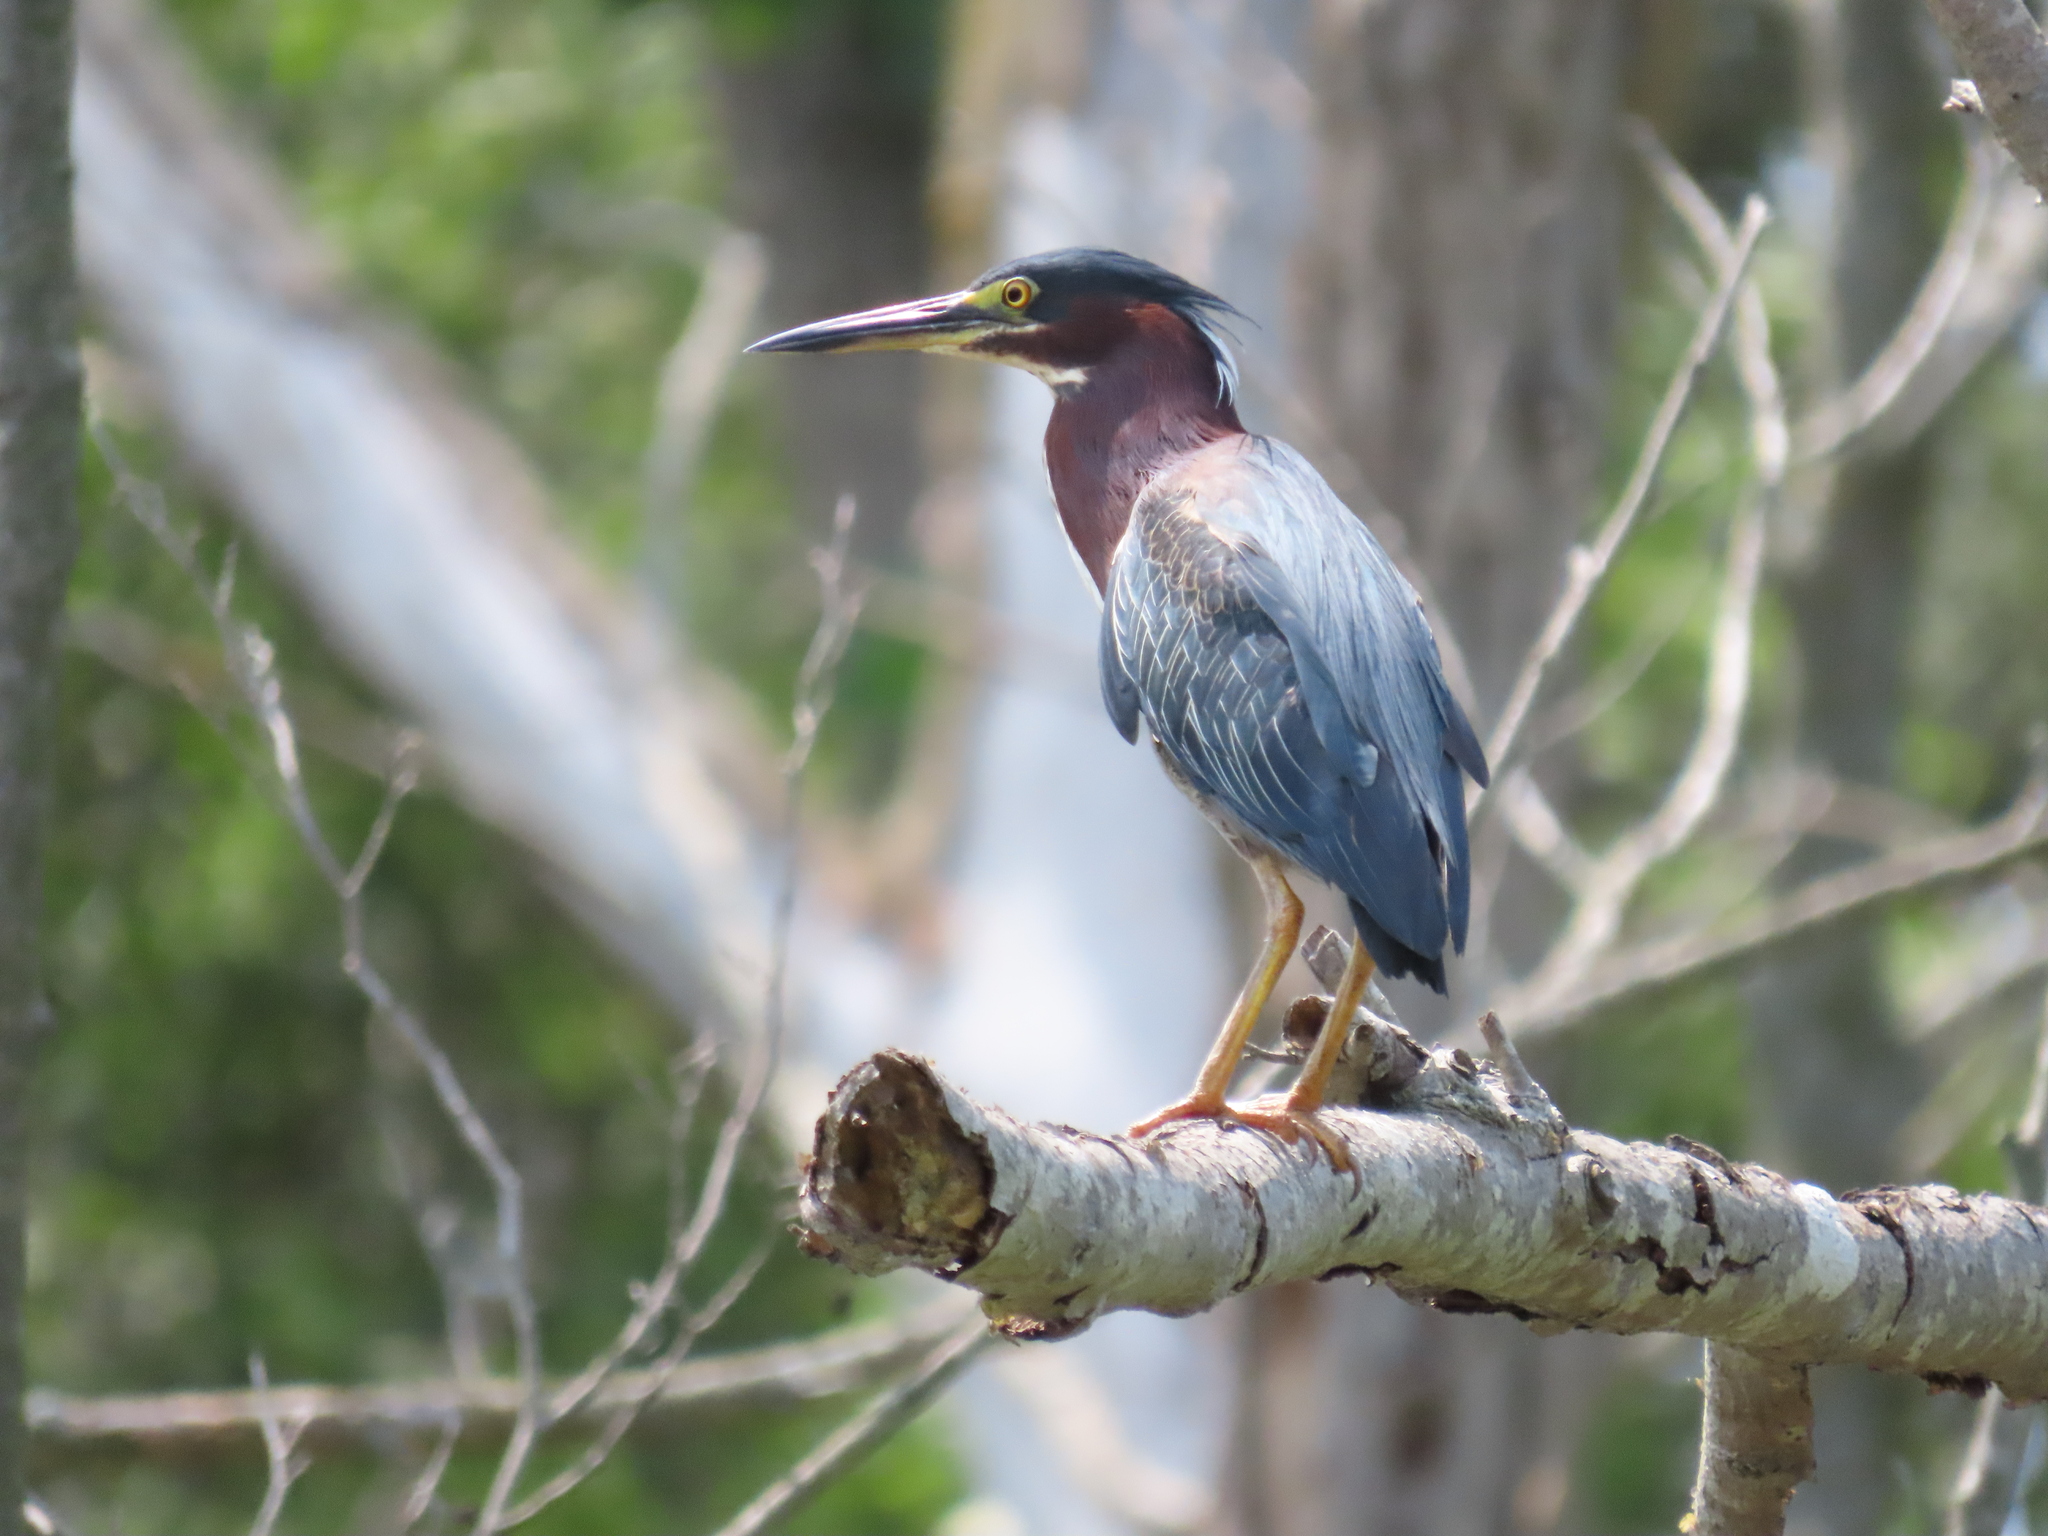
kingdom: Animalia
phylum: Chordata
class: Aves
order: Pelecaniformes
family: Ardeidae
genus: Butorides
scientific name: Butorides virescens
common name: Green heron
